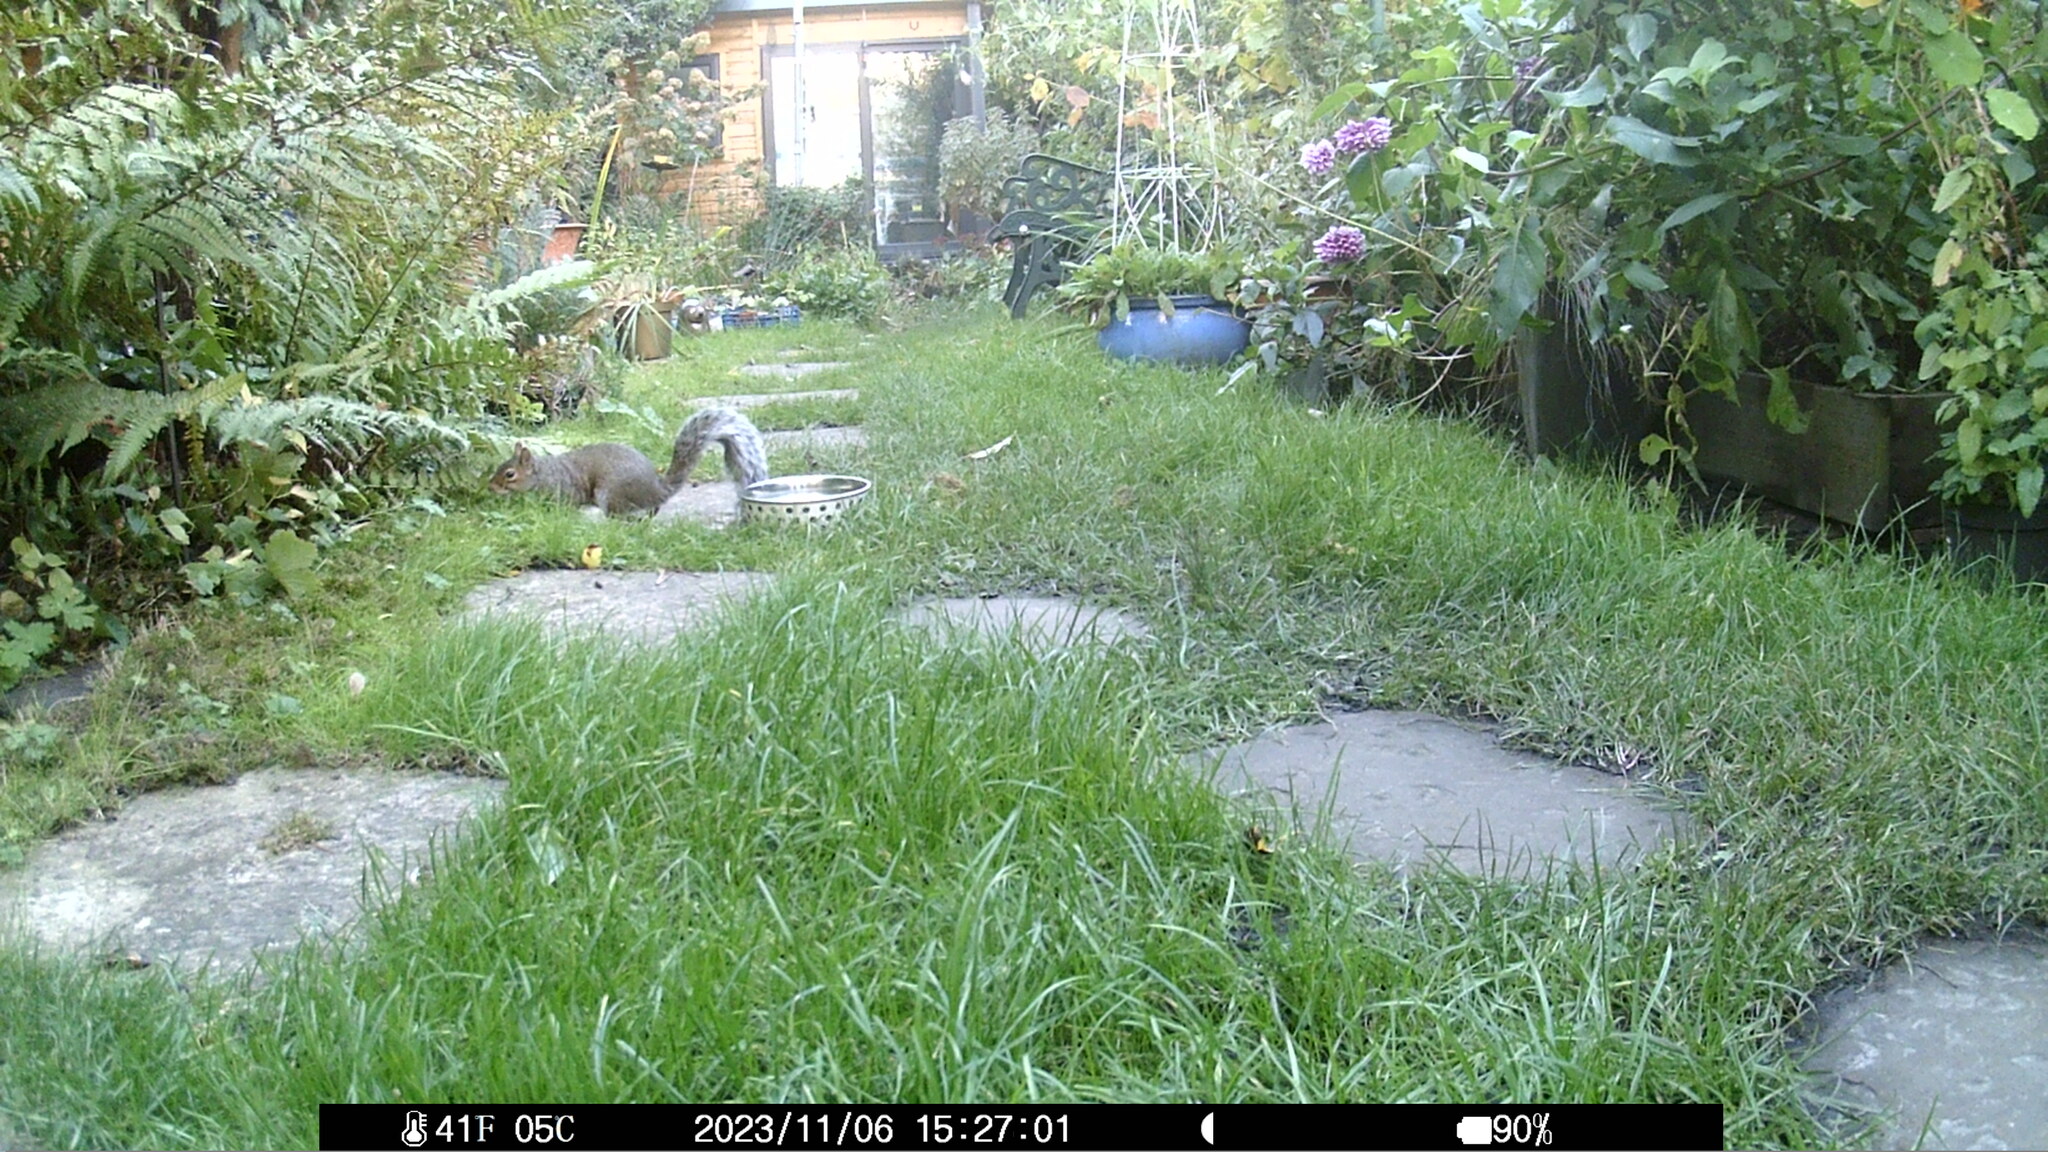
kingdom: Animalia
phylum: Chordata
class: Mammalia
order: Rodentia
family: Sciuridae
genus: Sciurus
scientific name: Sciurus carolinensis
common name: Eastern gray squirrel
